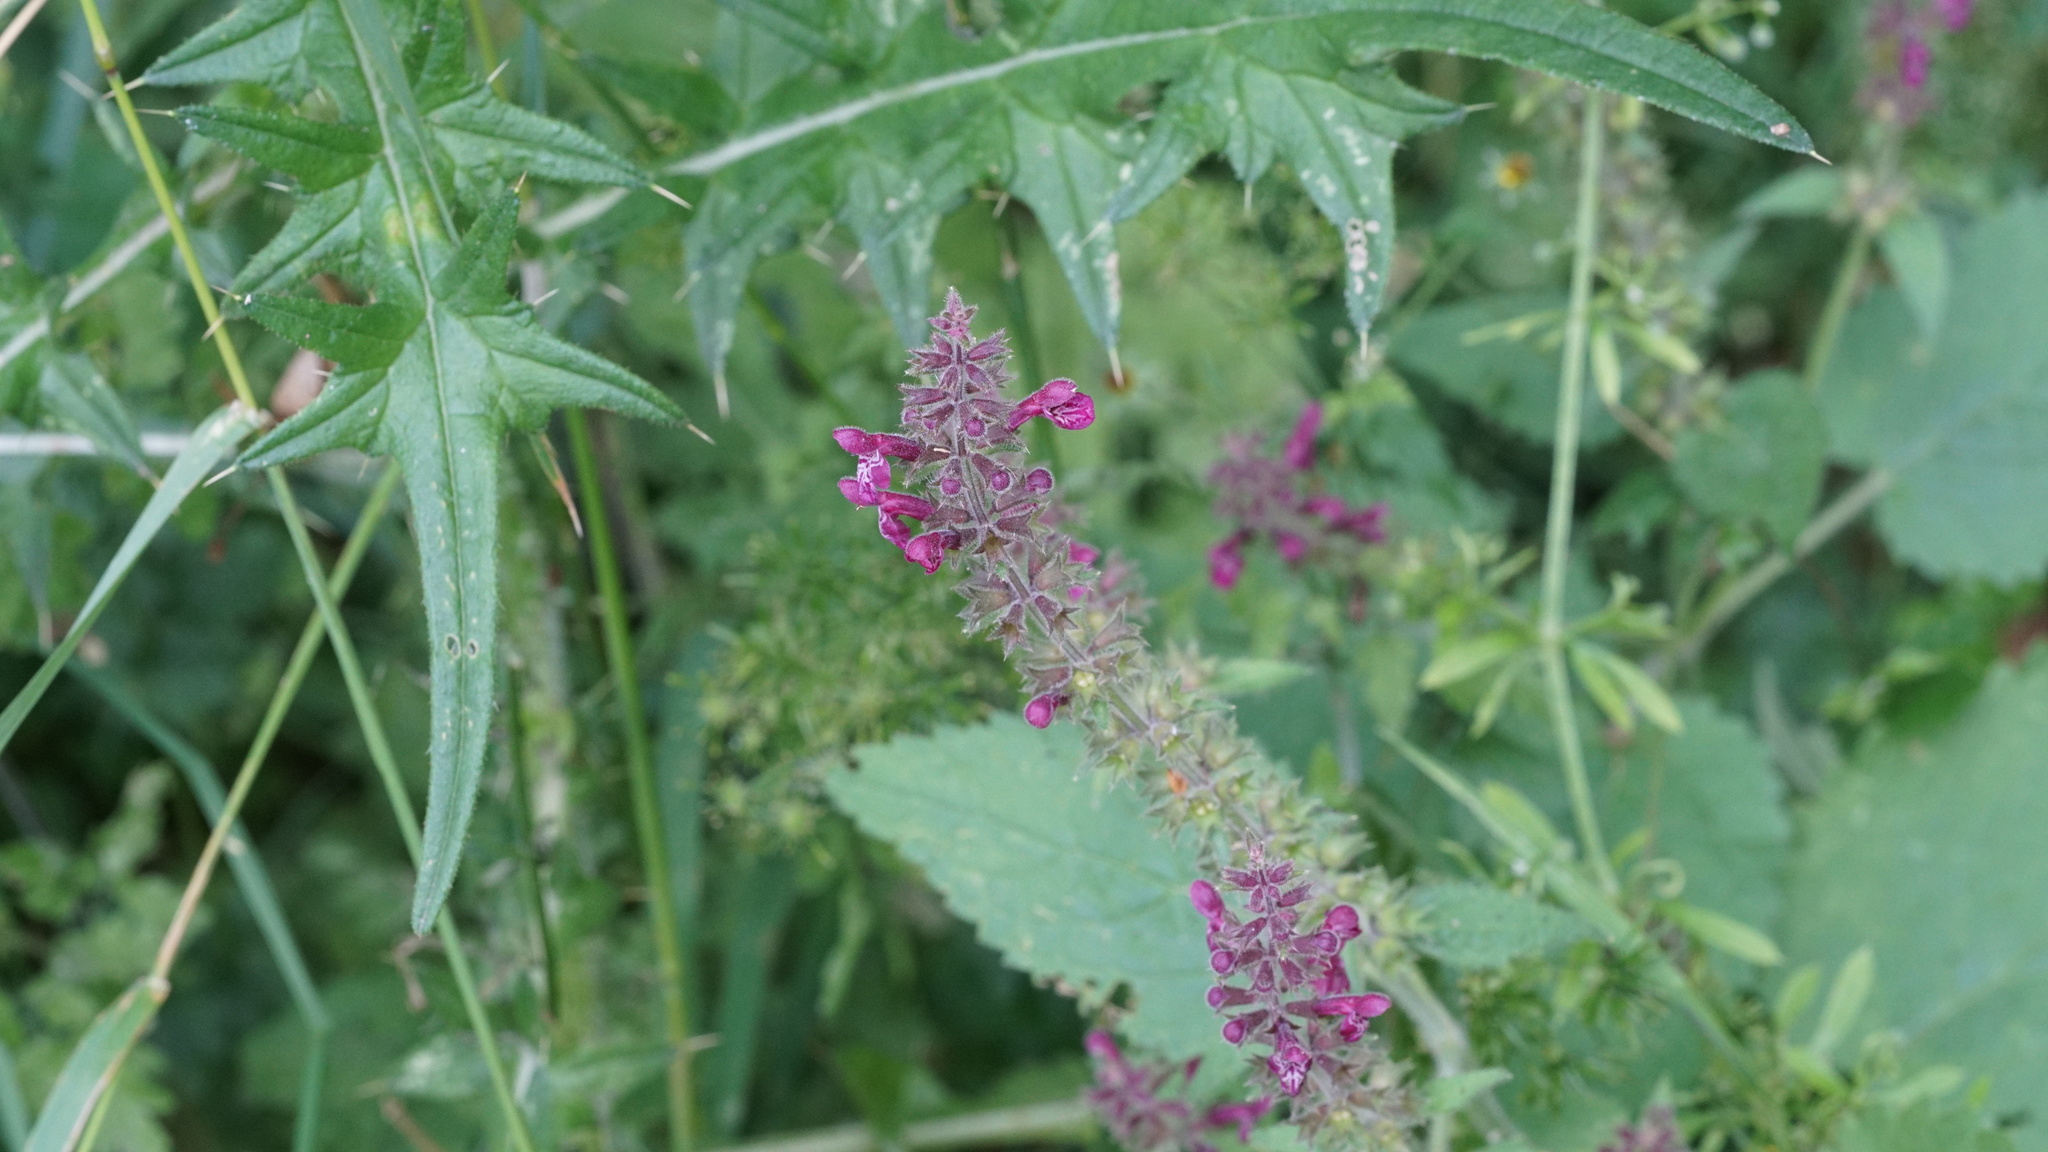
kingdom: Plantae
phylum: Tracheophyta
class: Magnoliopsida
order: Lamiales
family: Lamiaceae
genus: Stachys
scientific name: Stachys sylvatica
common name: Hedge woundwort
